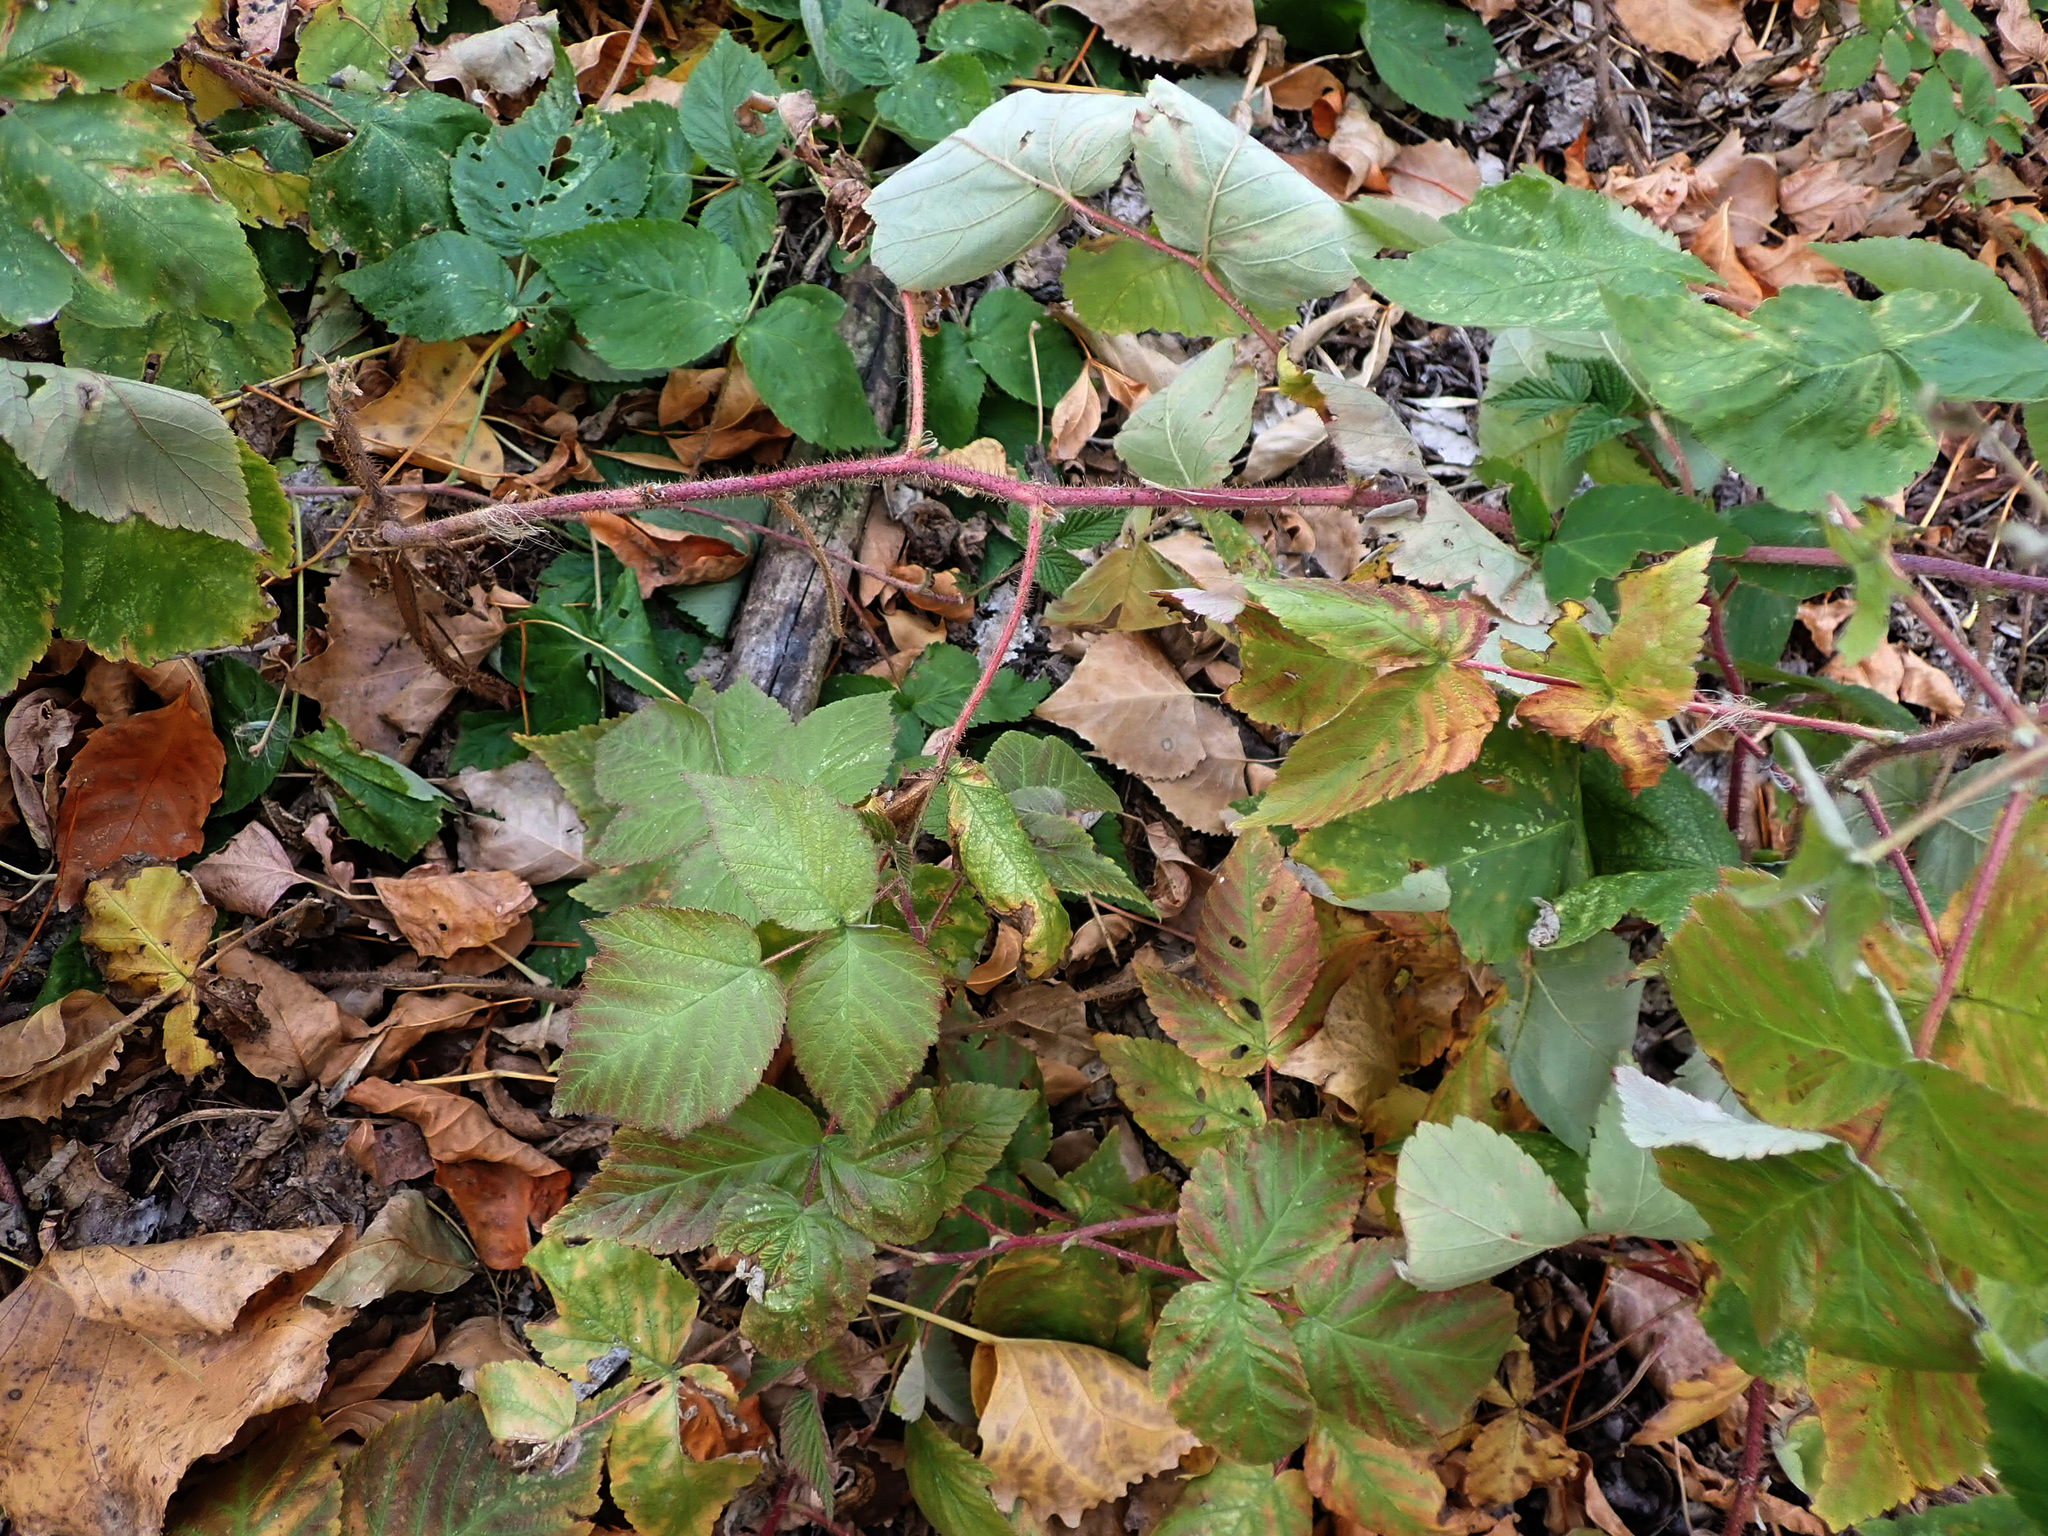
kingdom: Plantae
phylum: Tracheophyta
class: Magnoliopsida
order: Rosales
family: Rosaceae
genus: Rubus
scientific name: Rubus idaeus
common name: Raspberry
